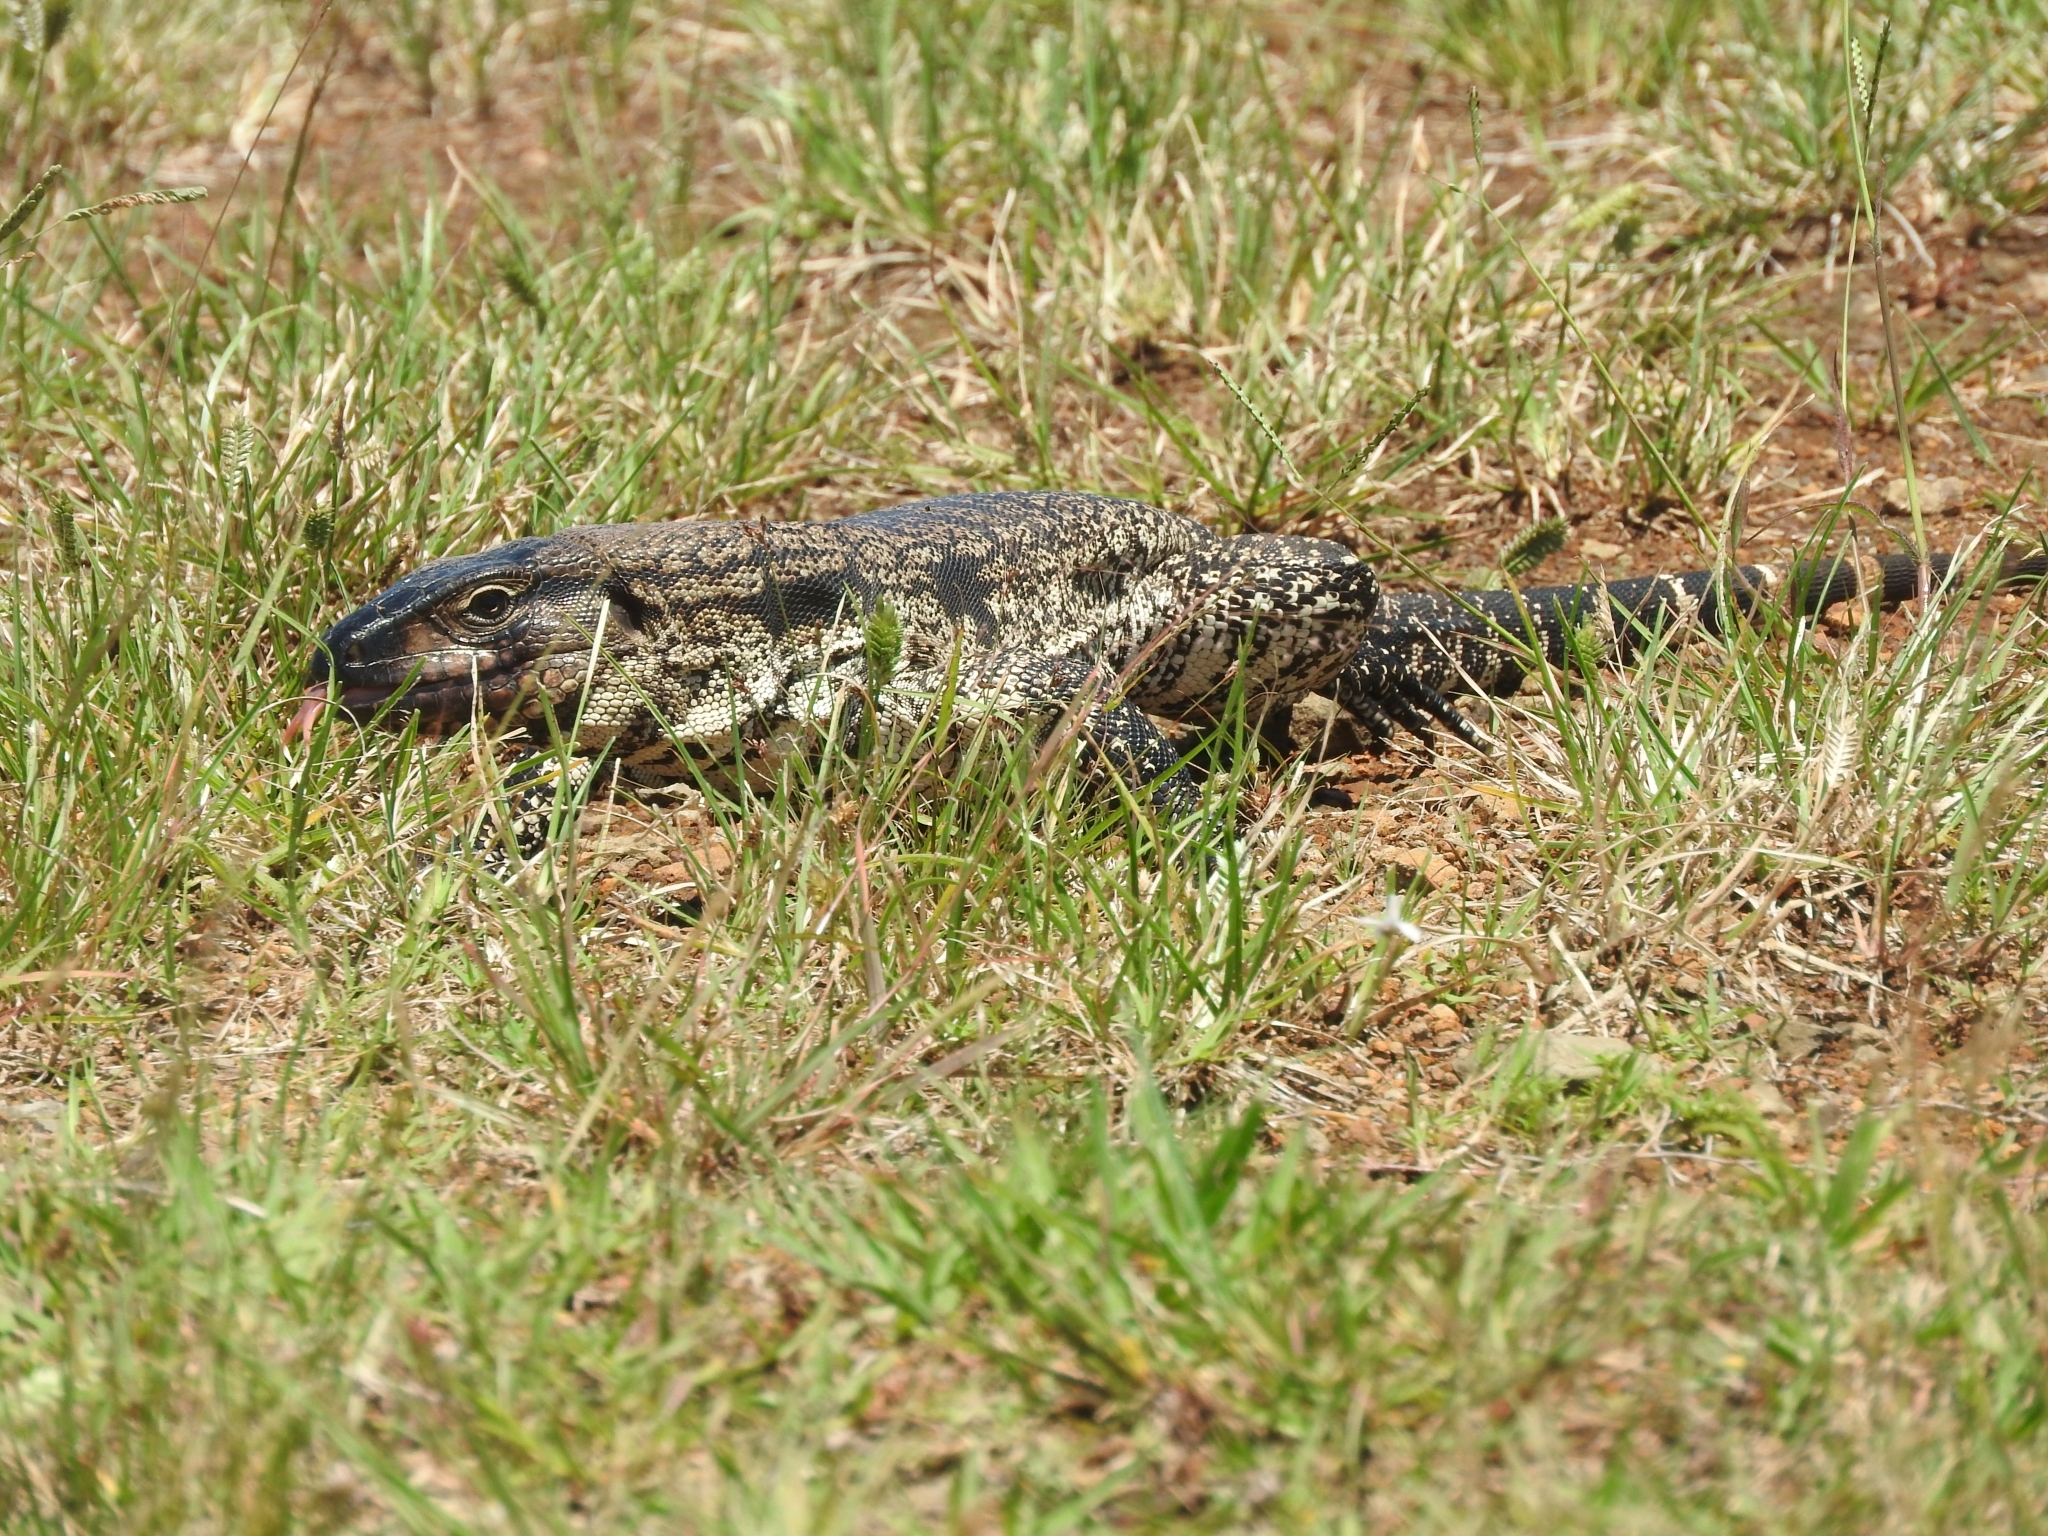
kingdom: Animalia
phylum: Chordata
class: Squamata
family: Teiidae
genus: Salvator
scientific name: Salvator merianae
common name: Argentine black and white tegu
